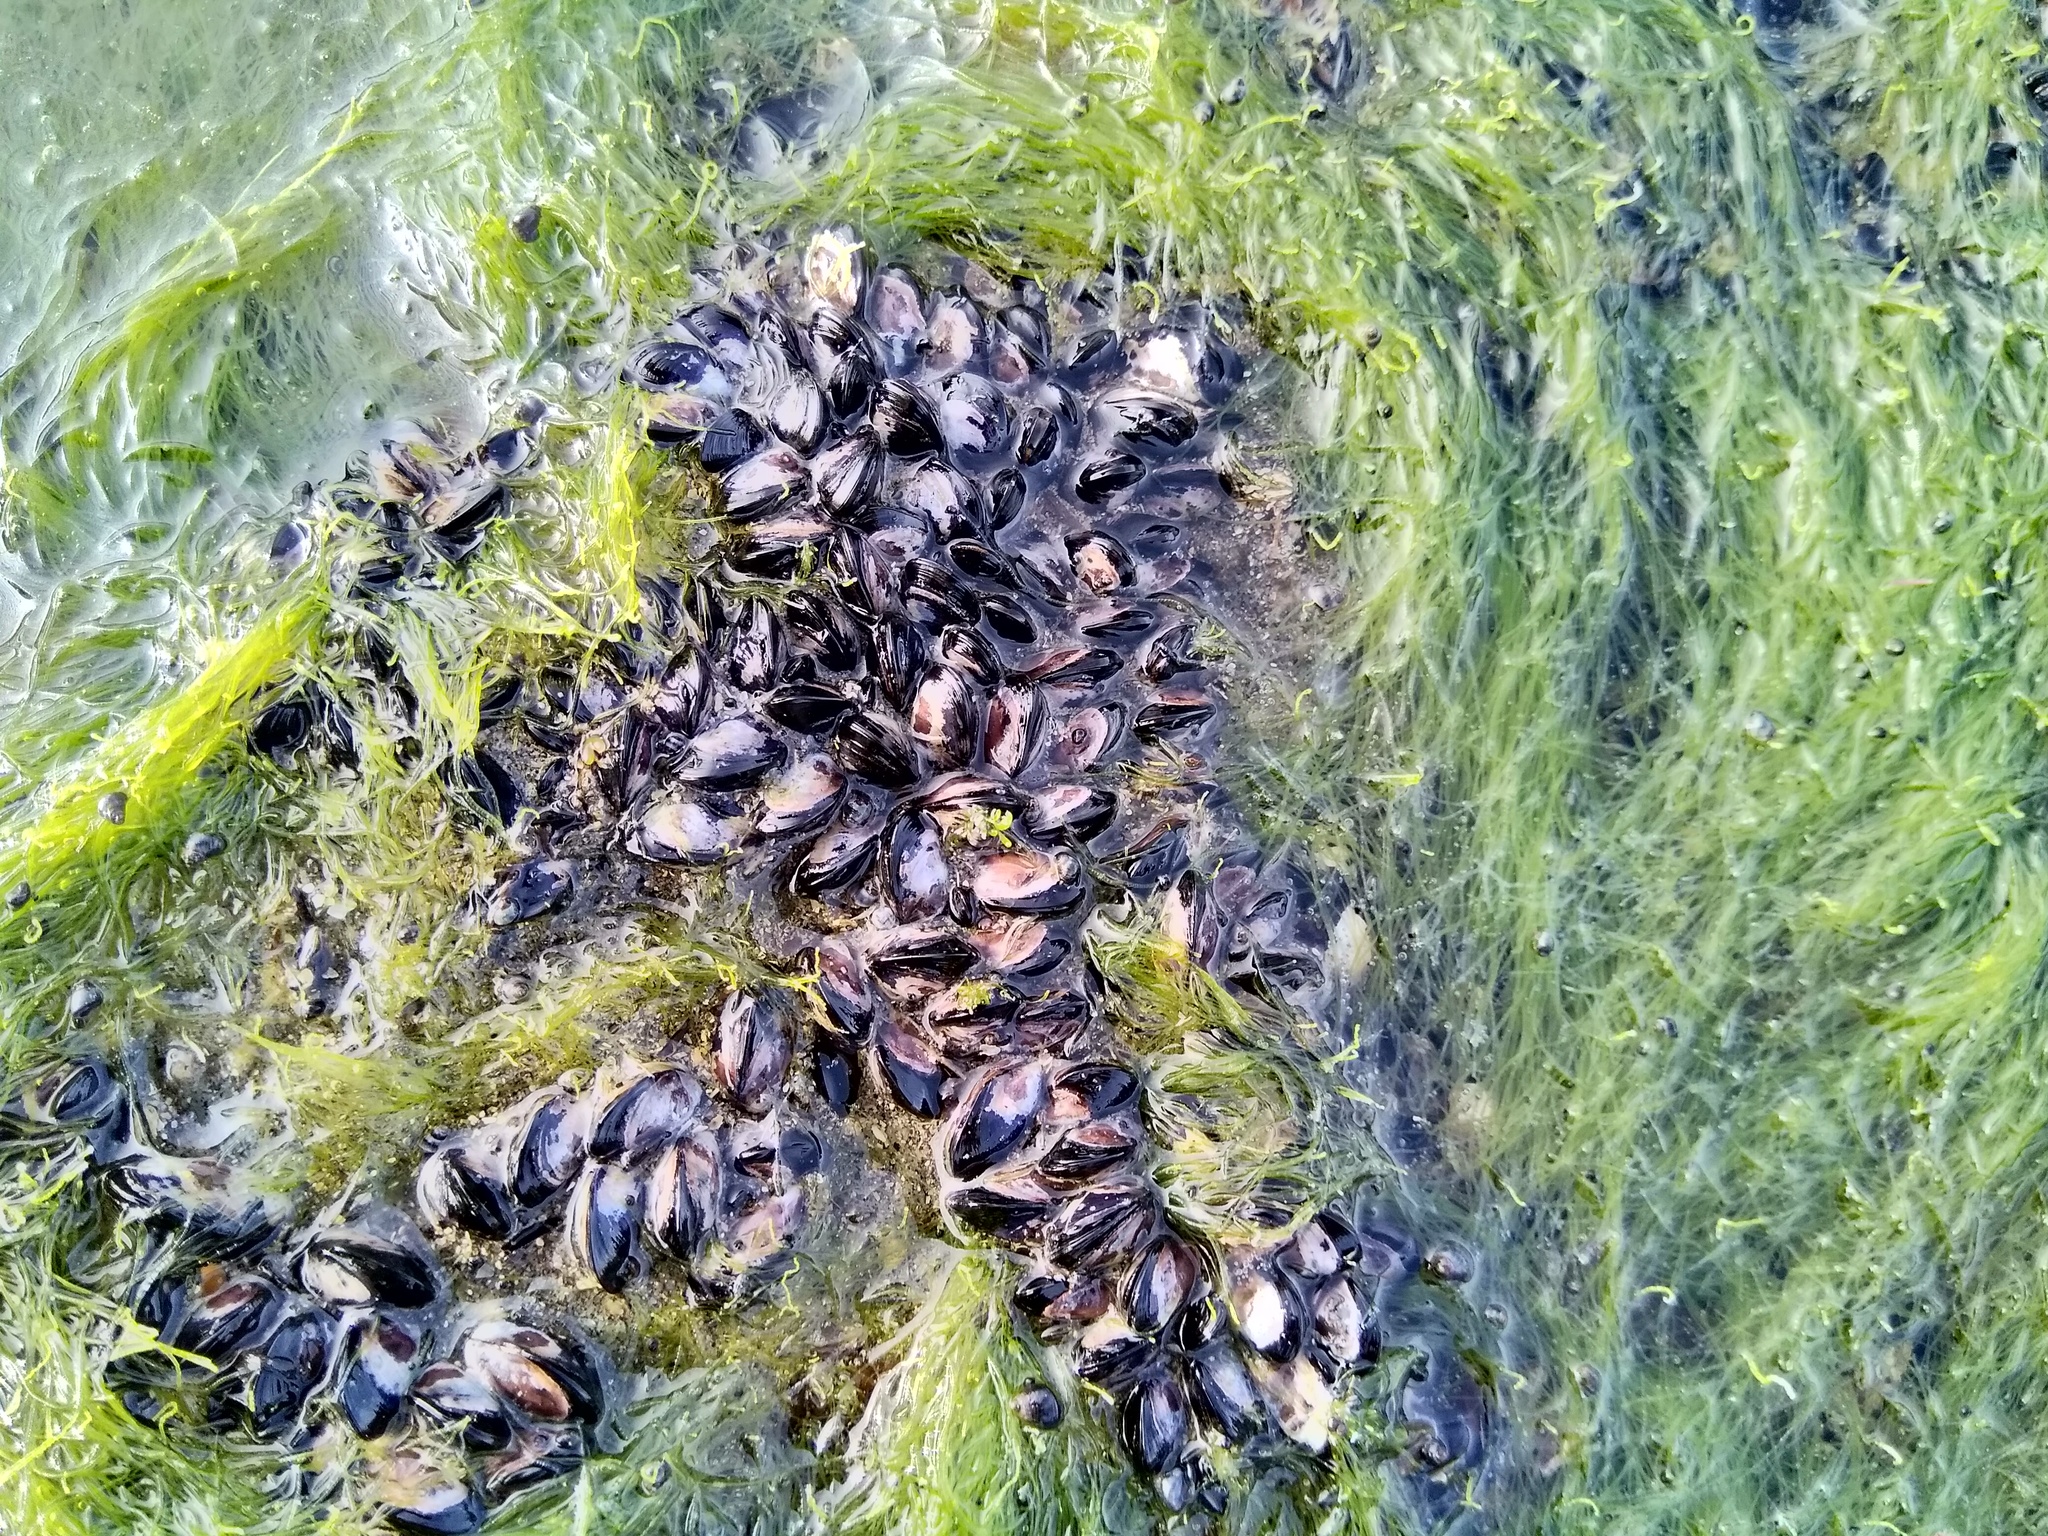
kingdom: Animalia
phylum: Mollusca
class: Bivalvia
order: Mytilida
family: Mytilidae
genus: Xenostrobus
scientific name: Xenostrobus neozelanicus
